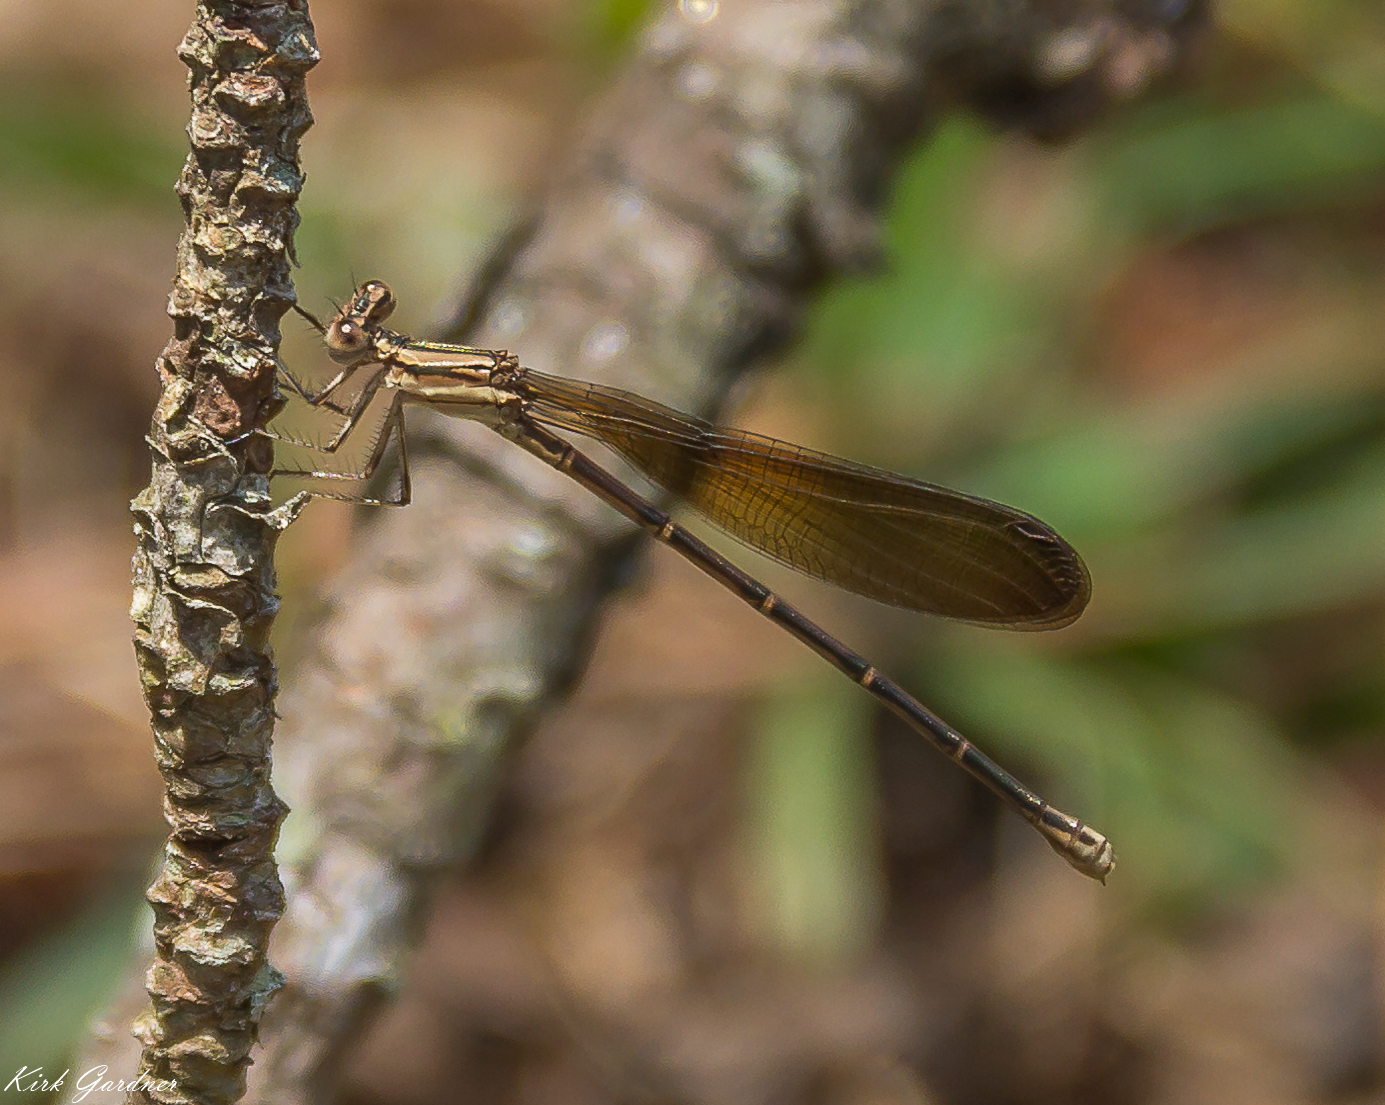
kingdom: Animalia
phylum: Arthropoda
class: Insecta
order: Odonata
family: Coenagrionidae
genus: Argia
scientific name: Argia fumipennis
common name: Variable dancer
